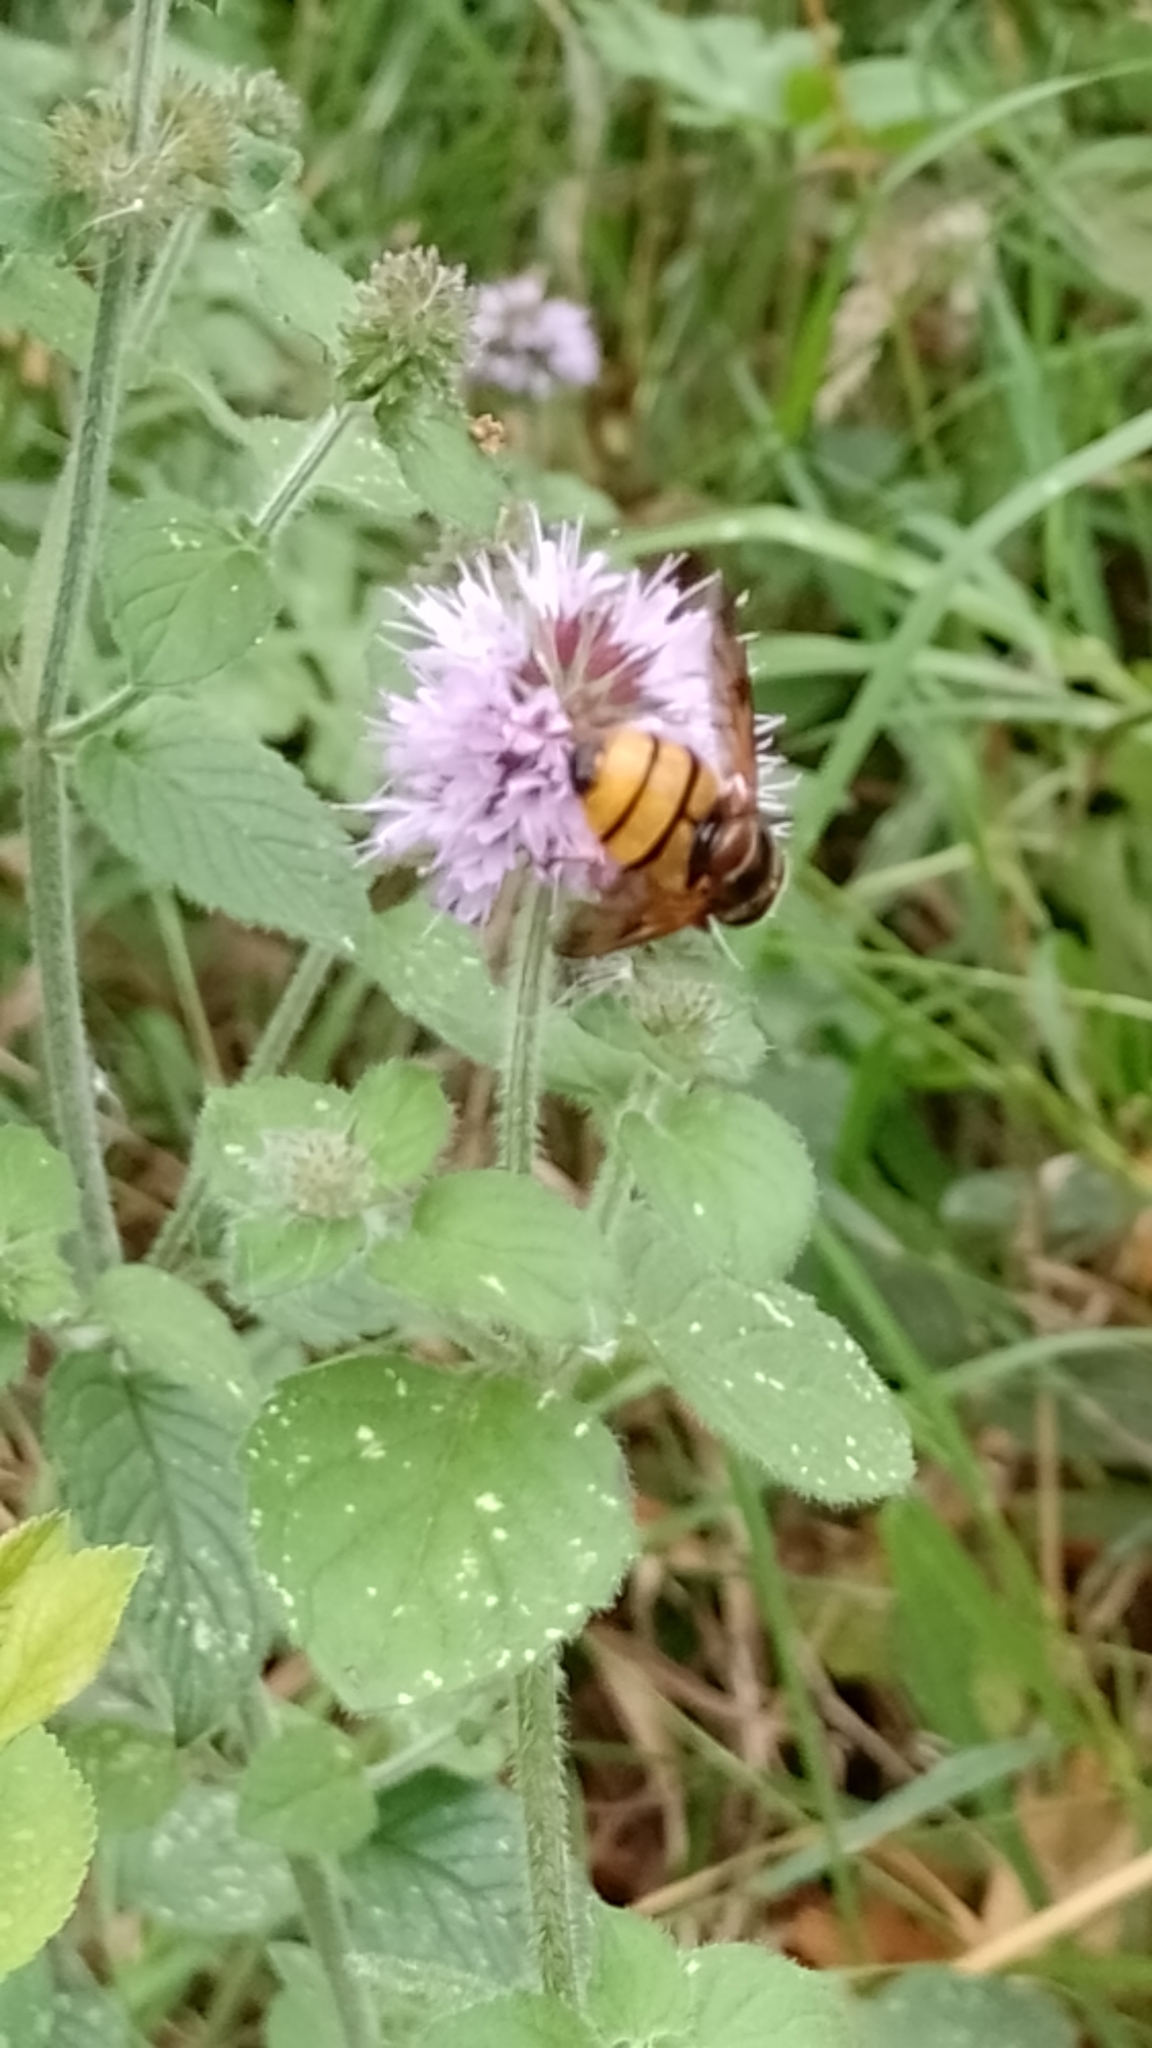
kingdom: Animalia
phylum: Arthropoda
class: Insecta
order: Diptera
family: Syrphidae
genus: Volucella
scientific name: Volucella inanis
